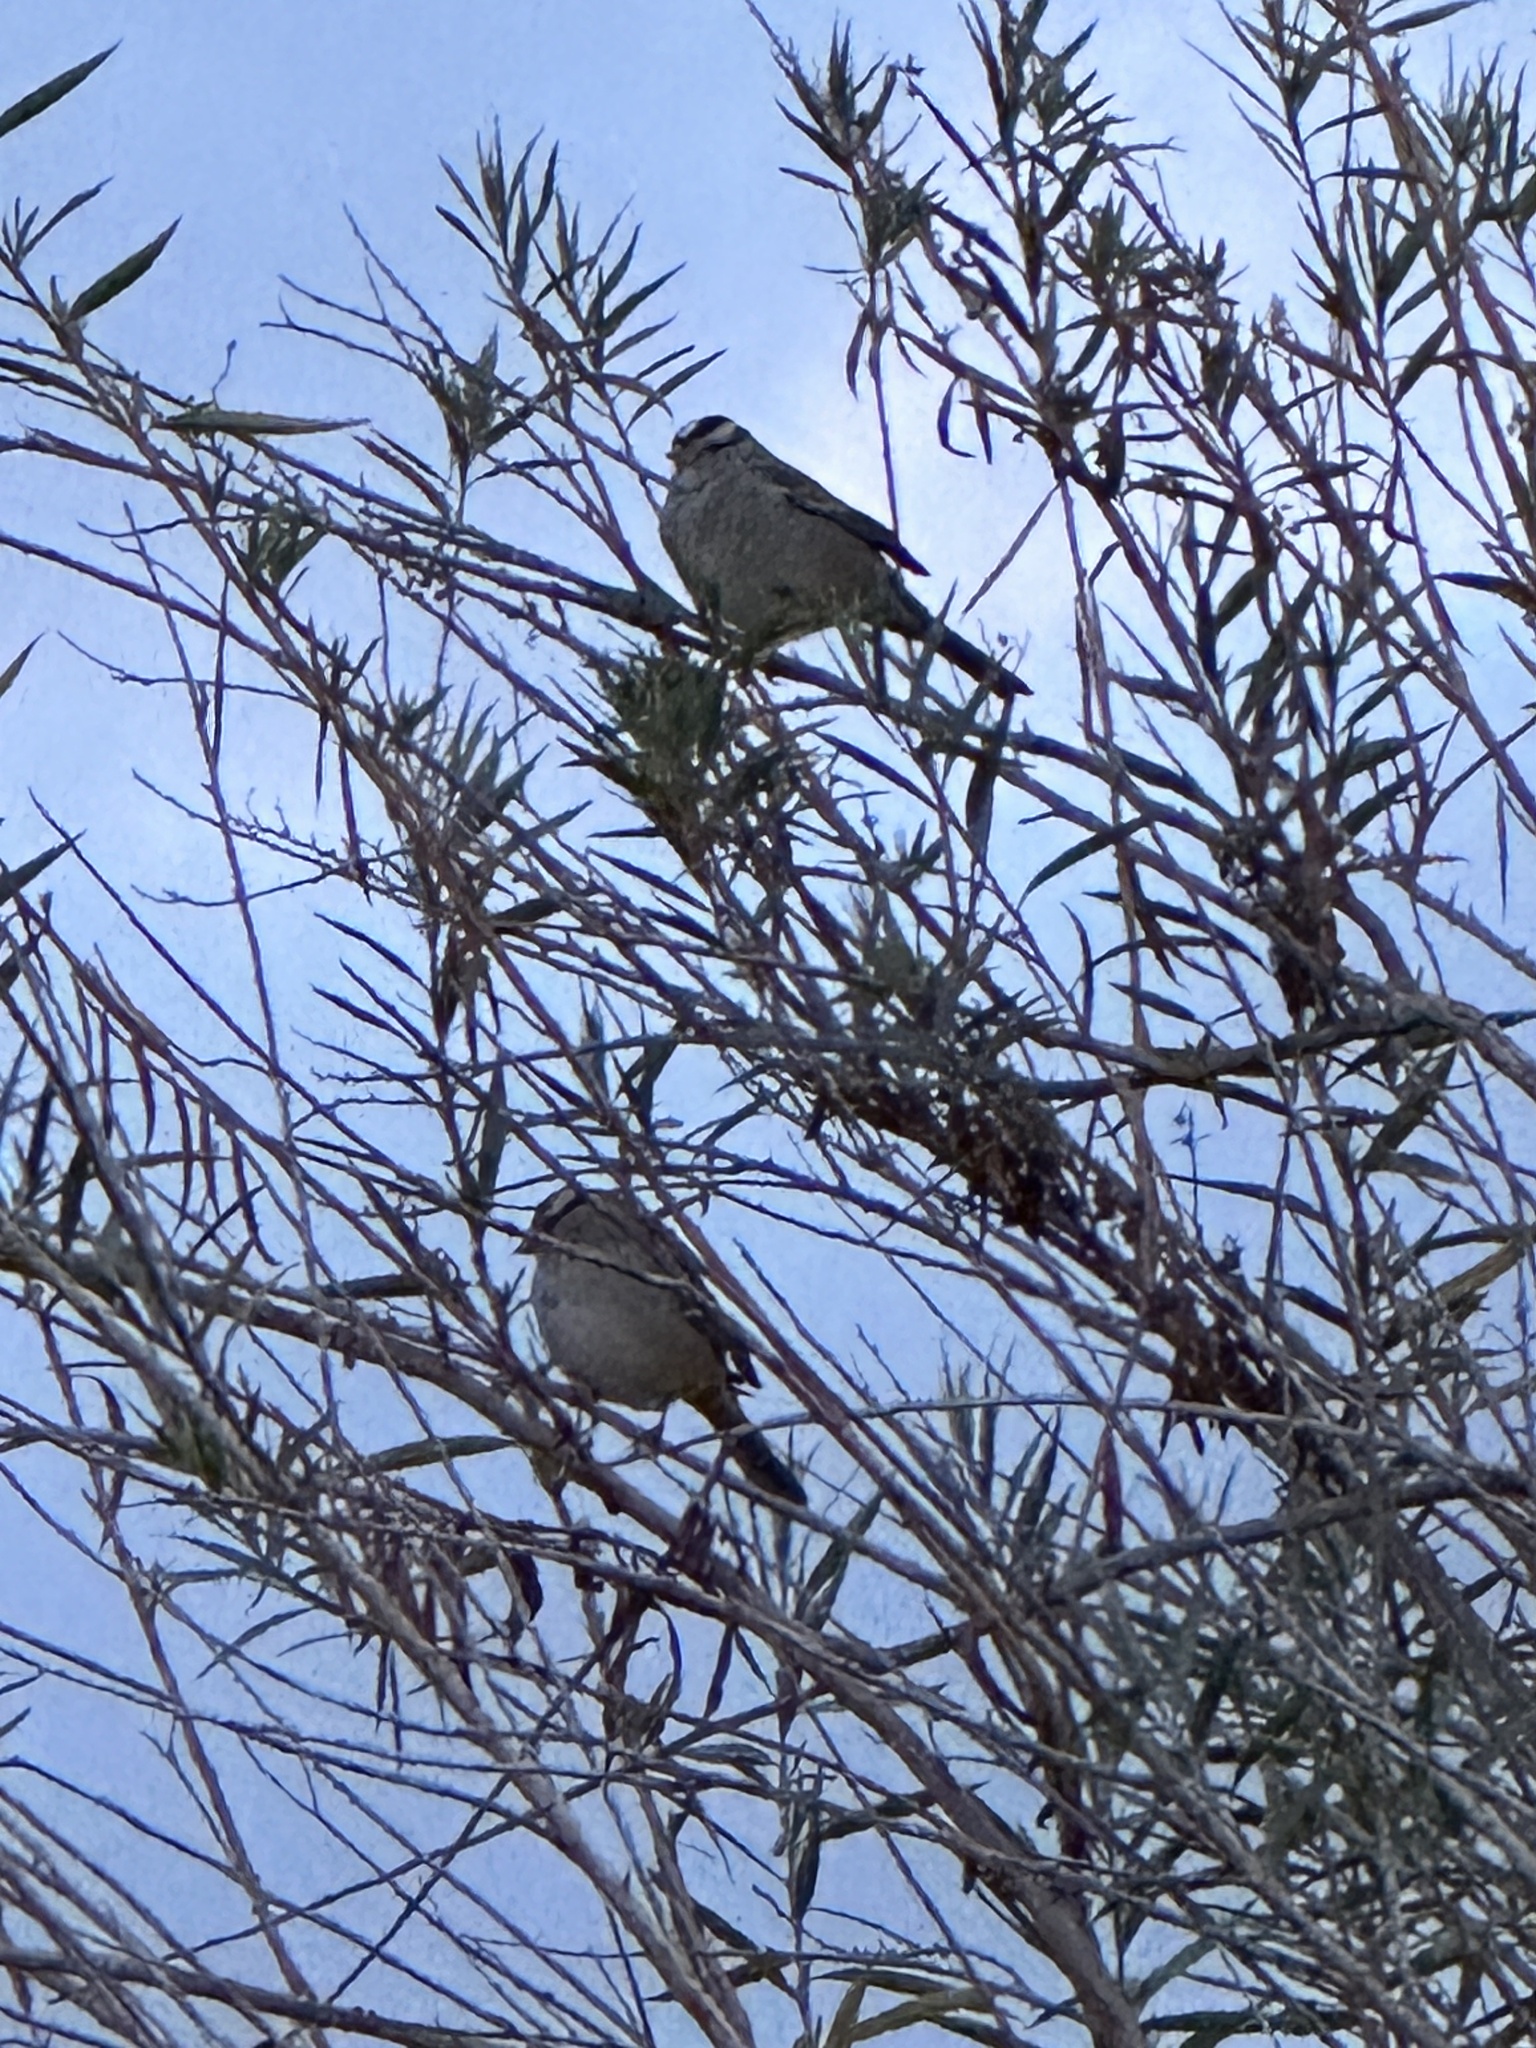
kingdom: Animalia
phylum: Chordata
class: Aves
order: Passeriformes
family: Passerellidae
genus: Zonotrichia
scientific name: Zonotrichia leucophrys
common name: White-crowned sparrow
